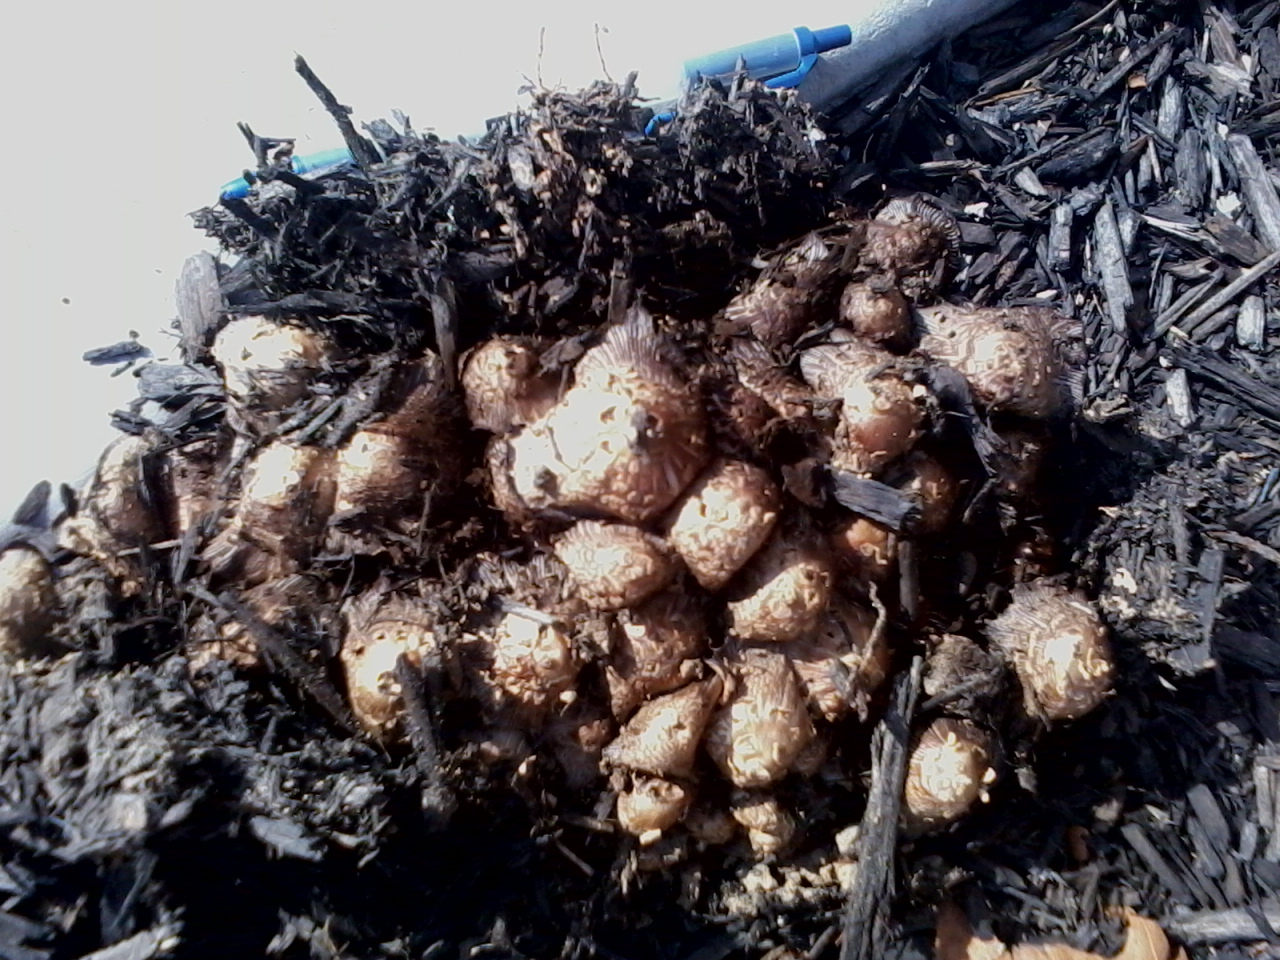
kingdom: Fungi
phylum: Basidiomycota
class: Agaricomycetes
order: Agaricales
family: Psathyrellaceae
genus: Coprinopsis
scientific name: Coprinopsis variegata
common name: Scaly ink cap
